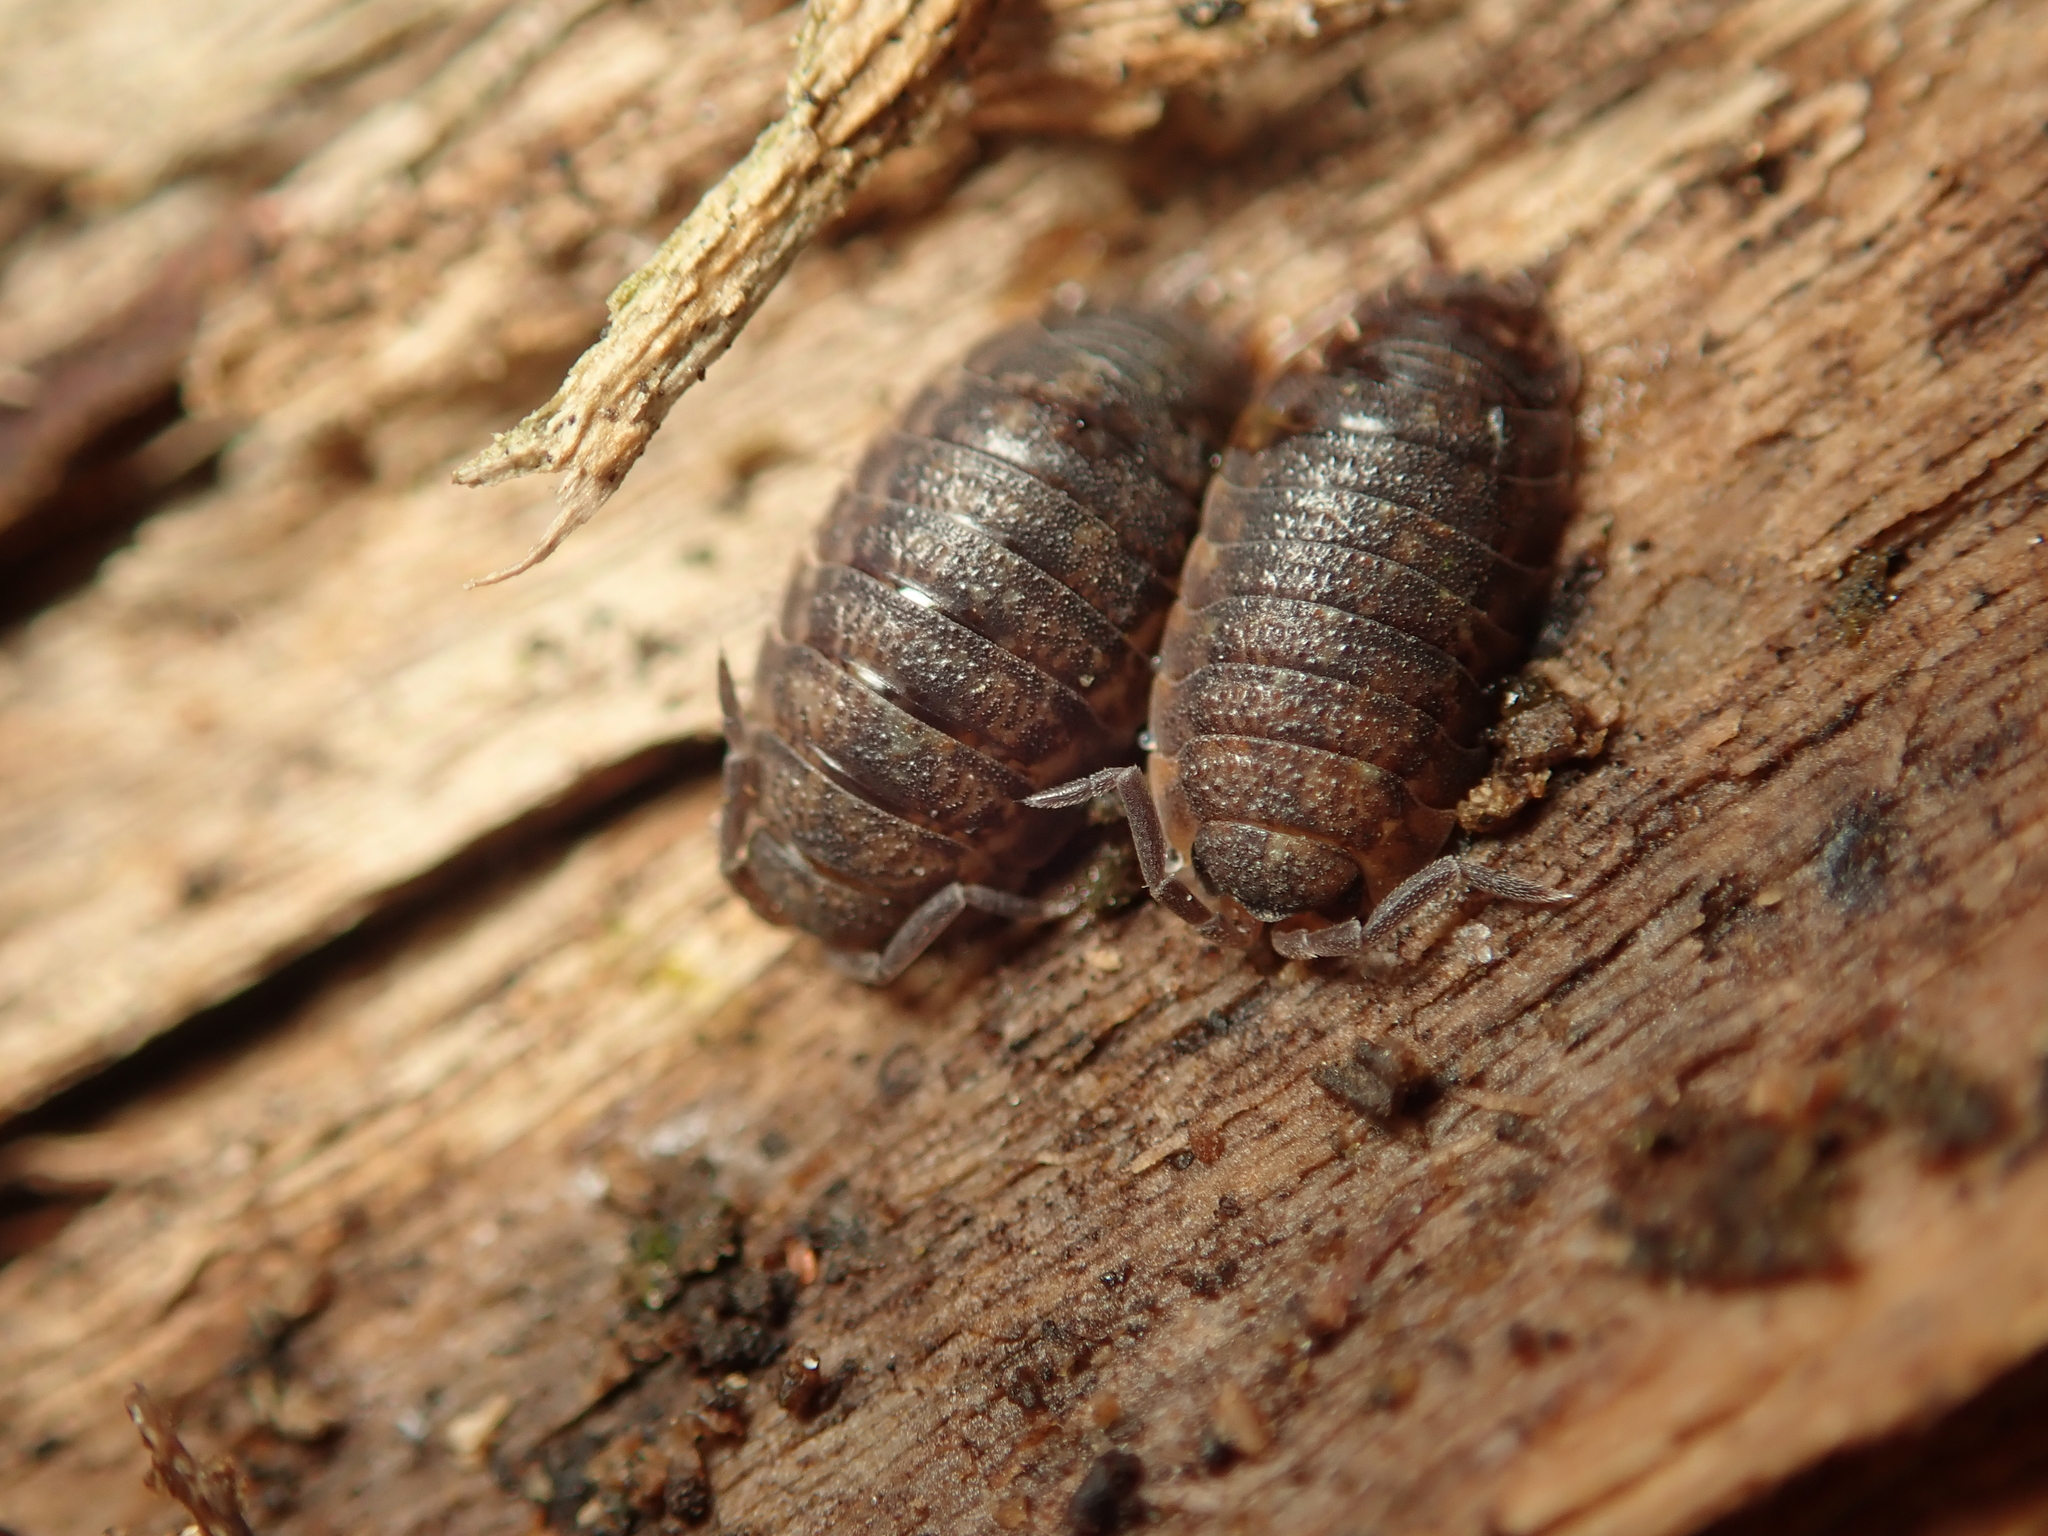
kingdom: Animalia
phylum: Arthropoda
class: Malacostraca
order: Isopoda
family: Porcellionidae
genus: Porcellio
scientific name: Porcellio scaber
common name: Common rough woodlouse
